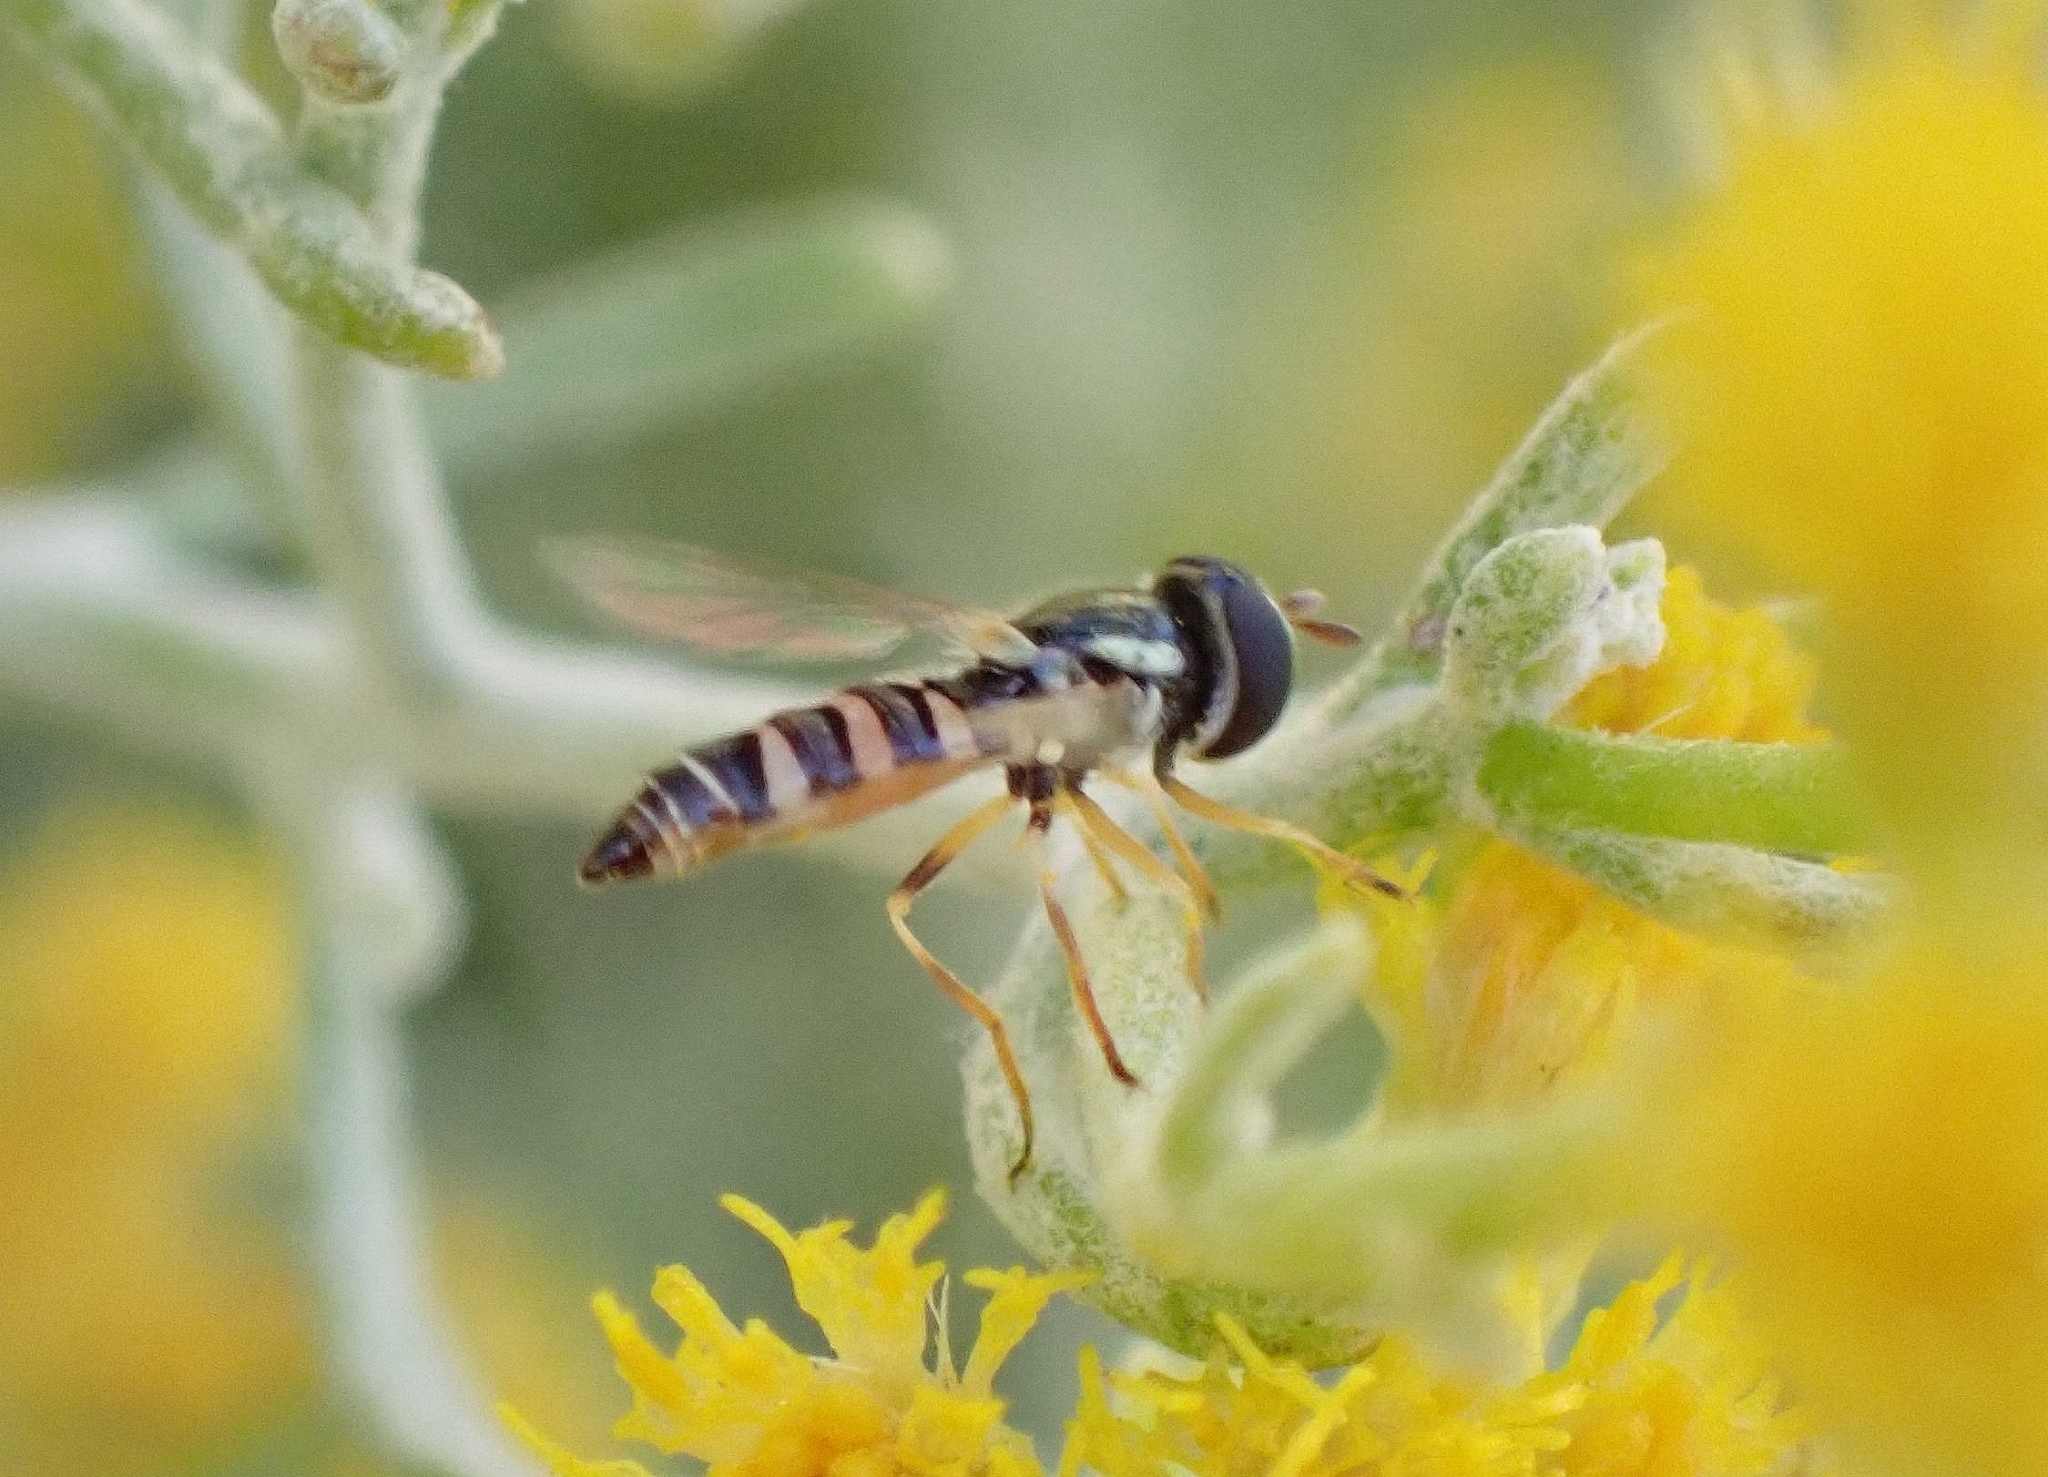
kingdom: Animalia
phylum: Arthropoda
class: Insecta
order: Diptera
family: Syrphidae
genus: Ischiodon
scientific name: Ischiodon aegyptius
